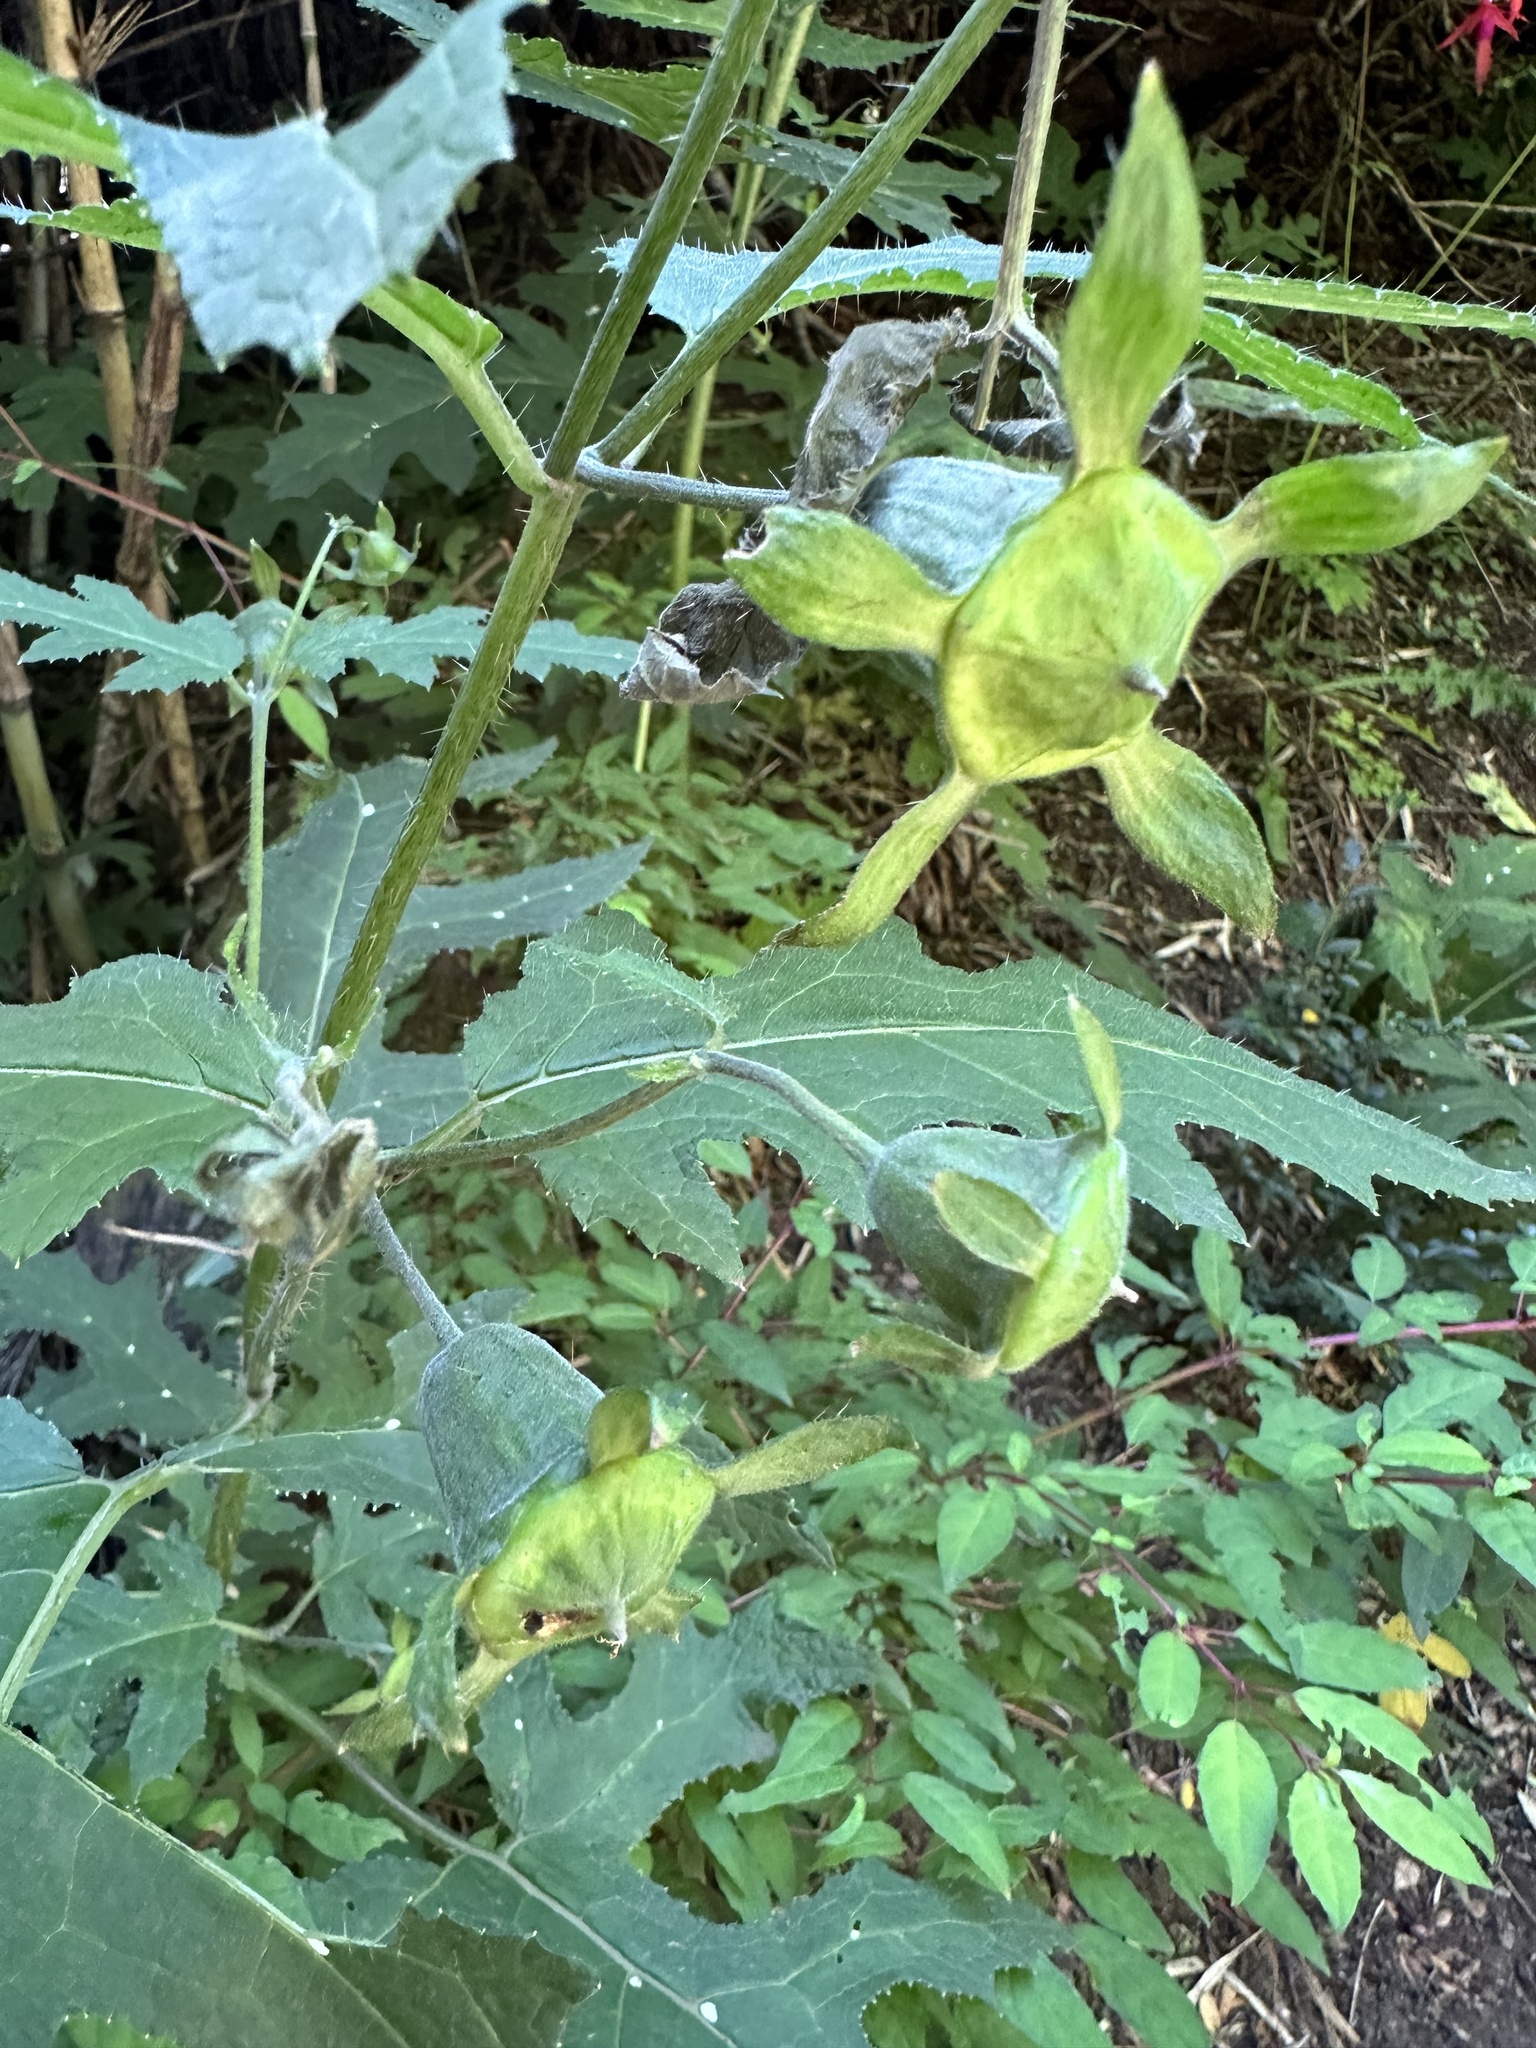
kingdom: Plantae
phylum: Tracheophyta
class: Magnoliopsida
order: Cornales
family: Loasaceae
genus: Loasa
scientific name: Loasa acanthifolia
